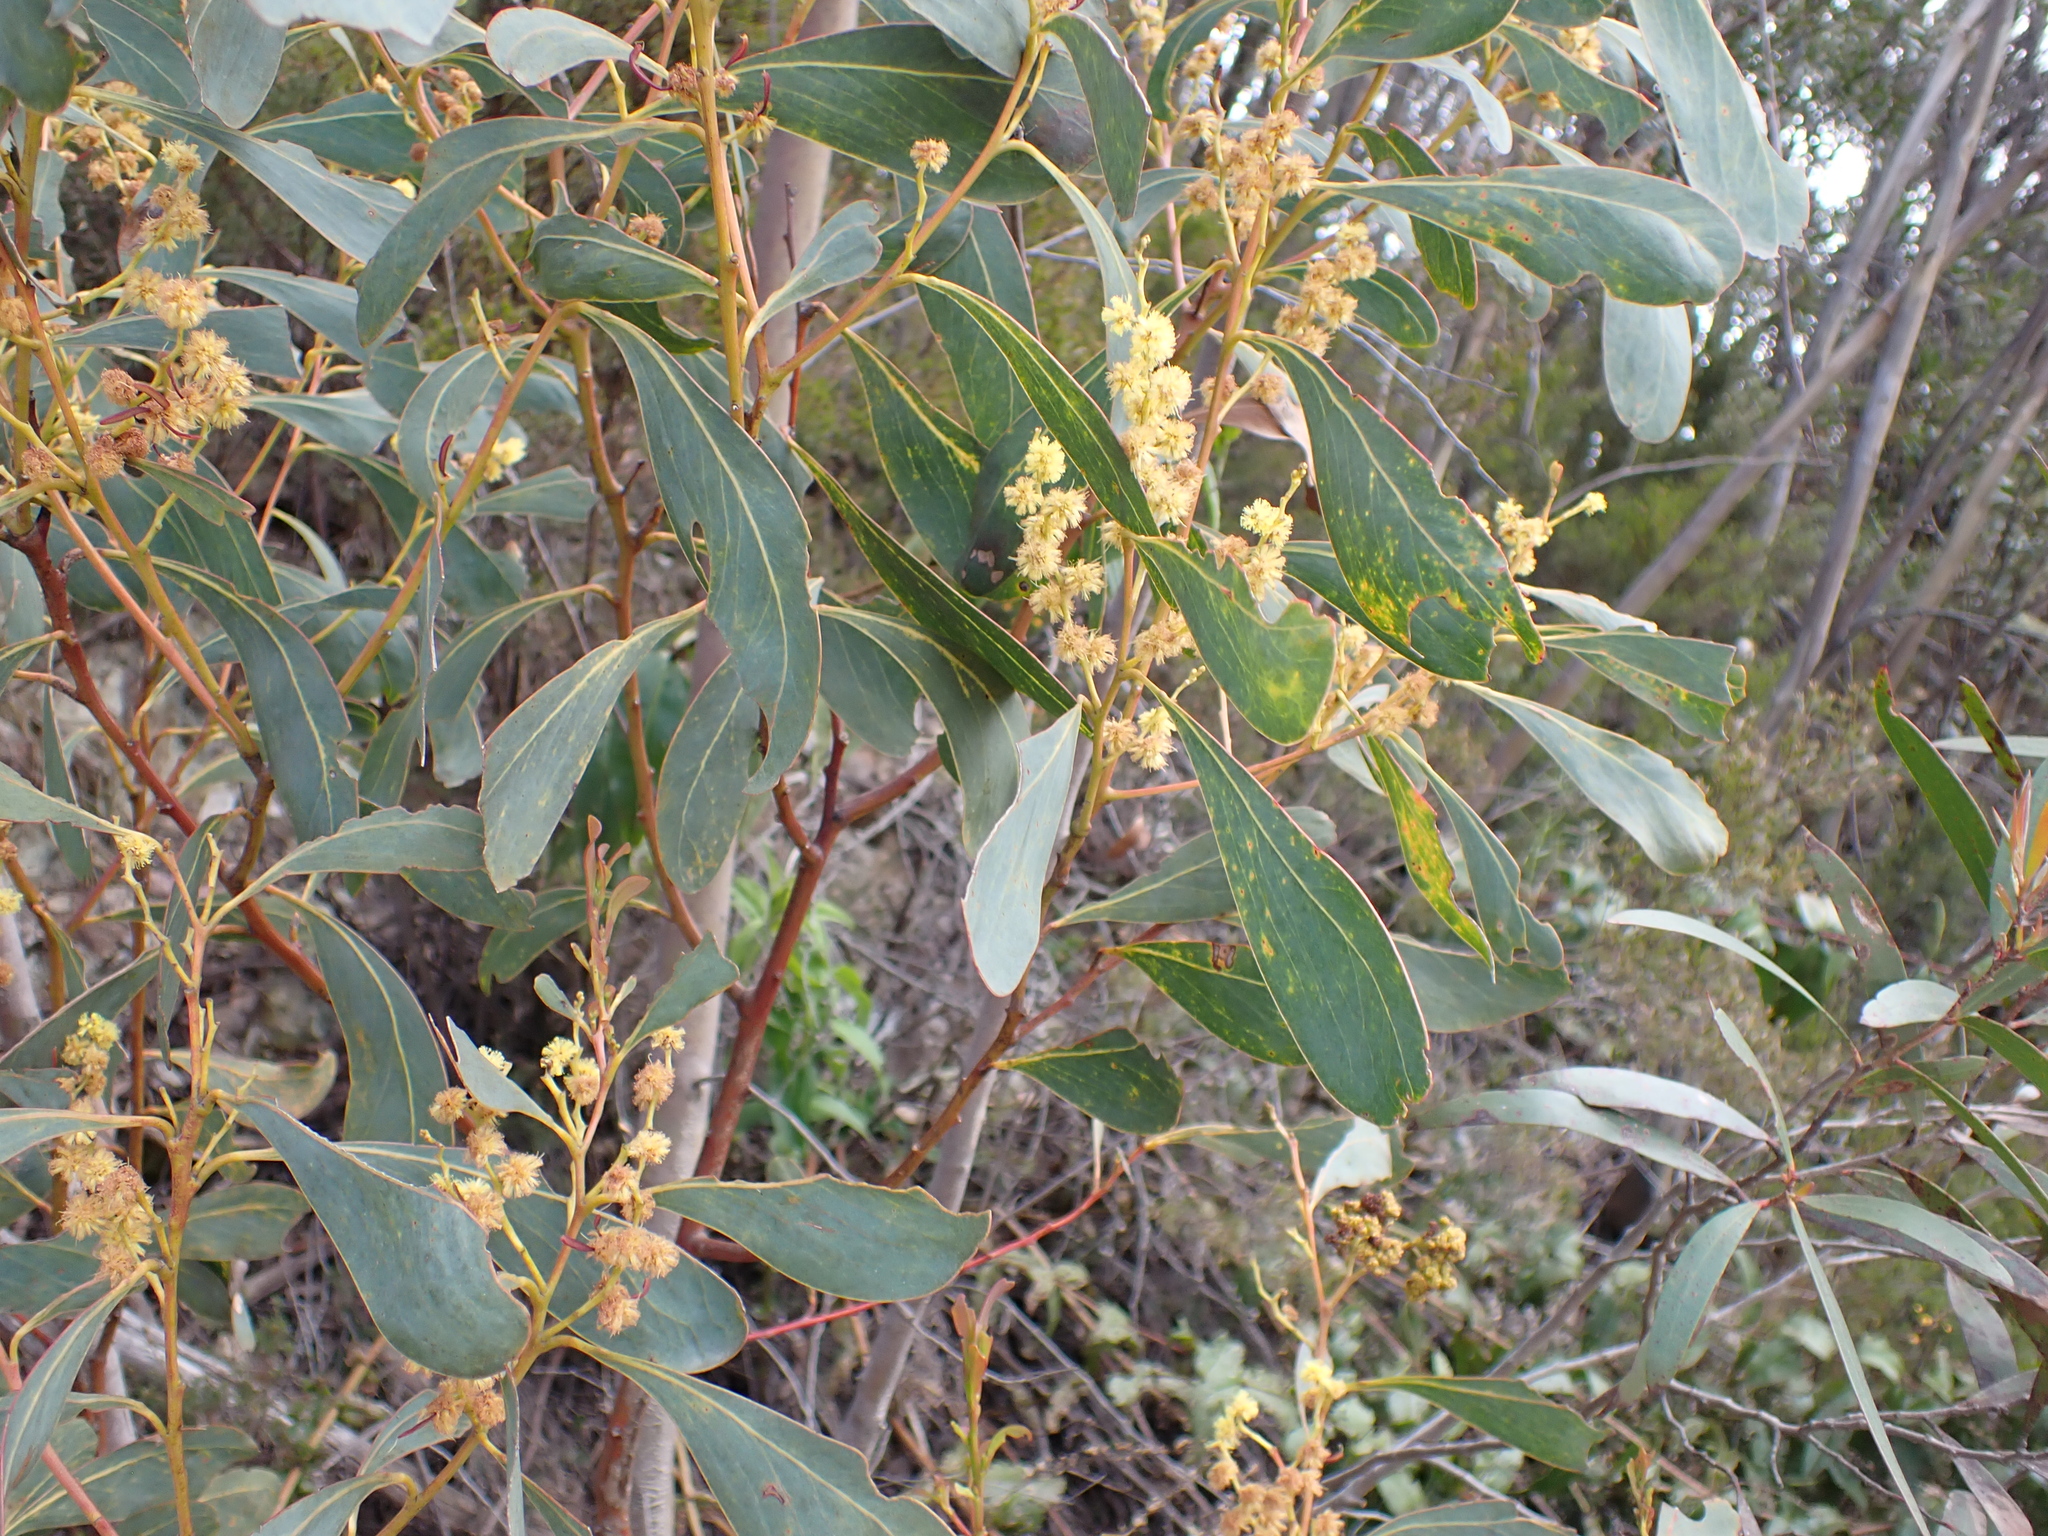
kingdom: Plantae
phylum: Tracheophyta
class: Magnoliopsida
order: Fabales
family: Fabaceae
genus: Acacia
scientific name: Acacia obliquinervia
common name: Mountain hickory wattle
